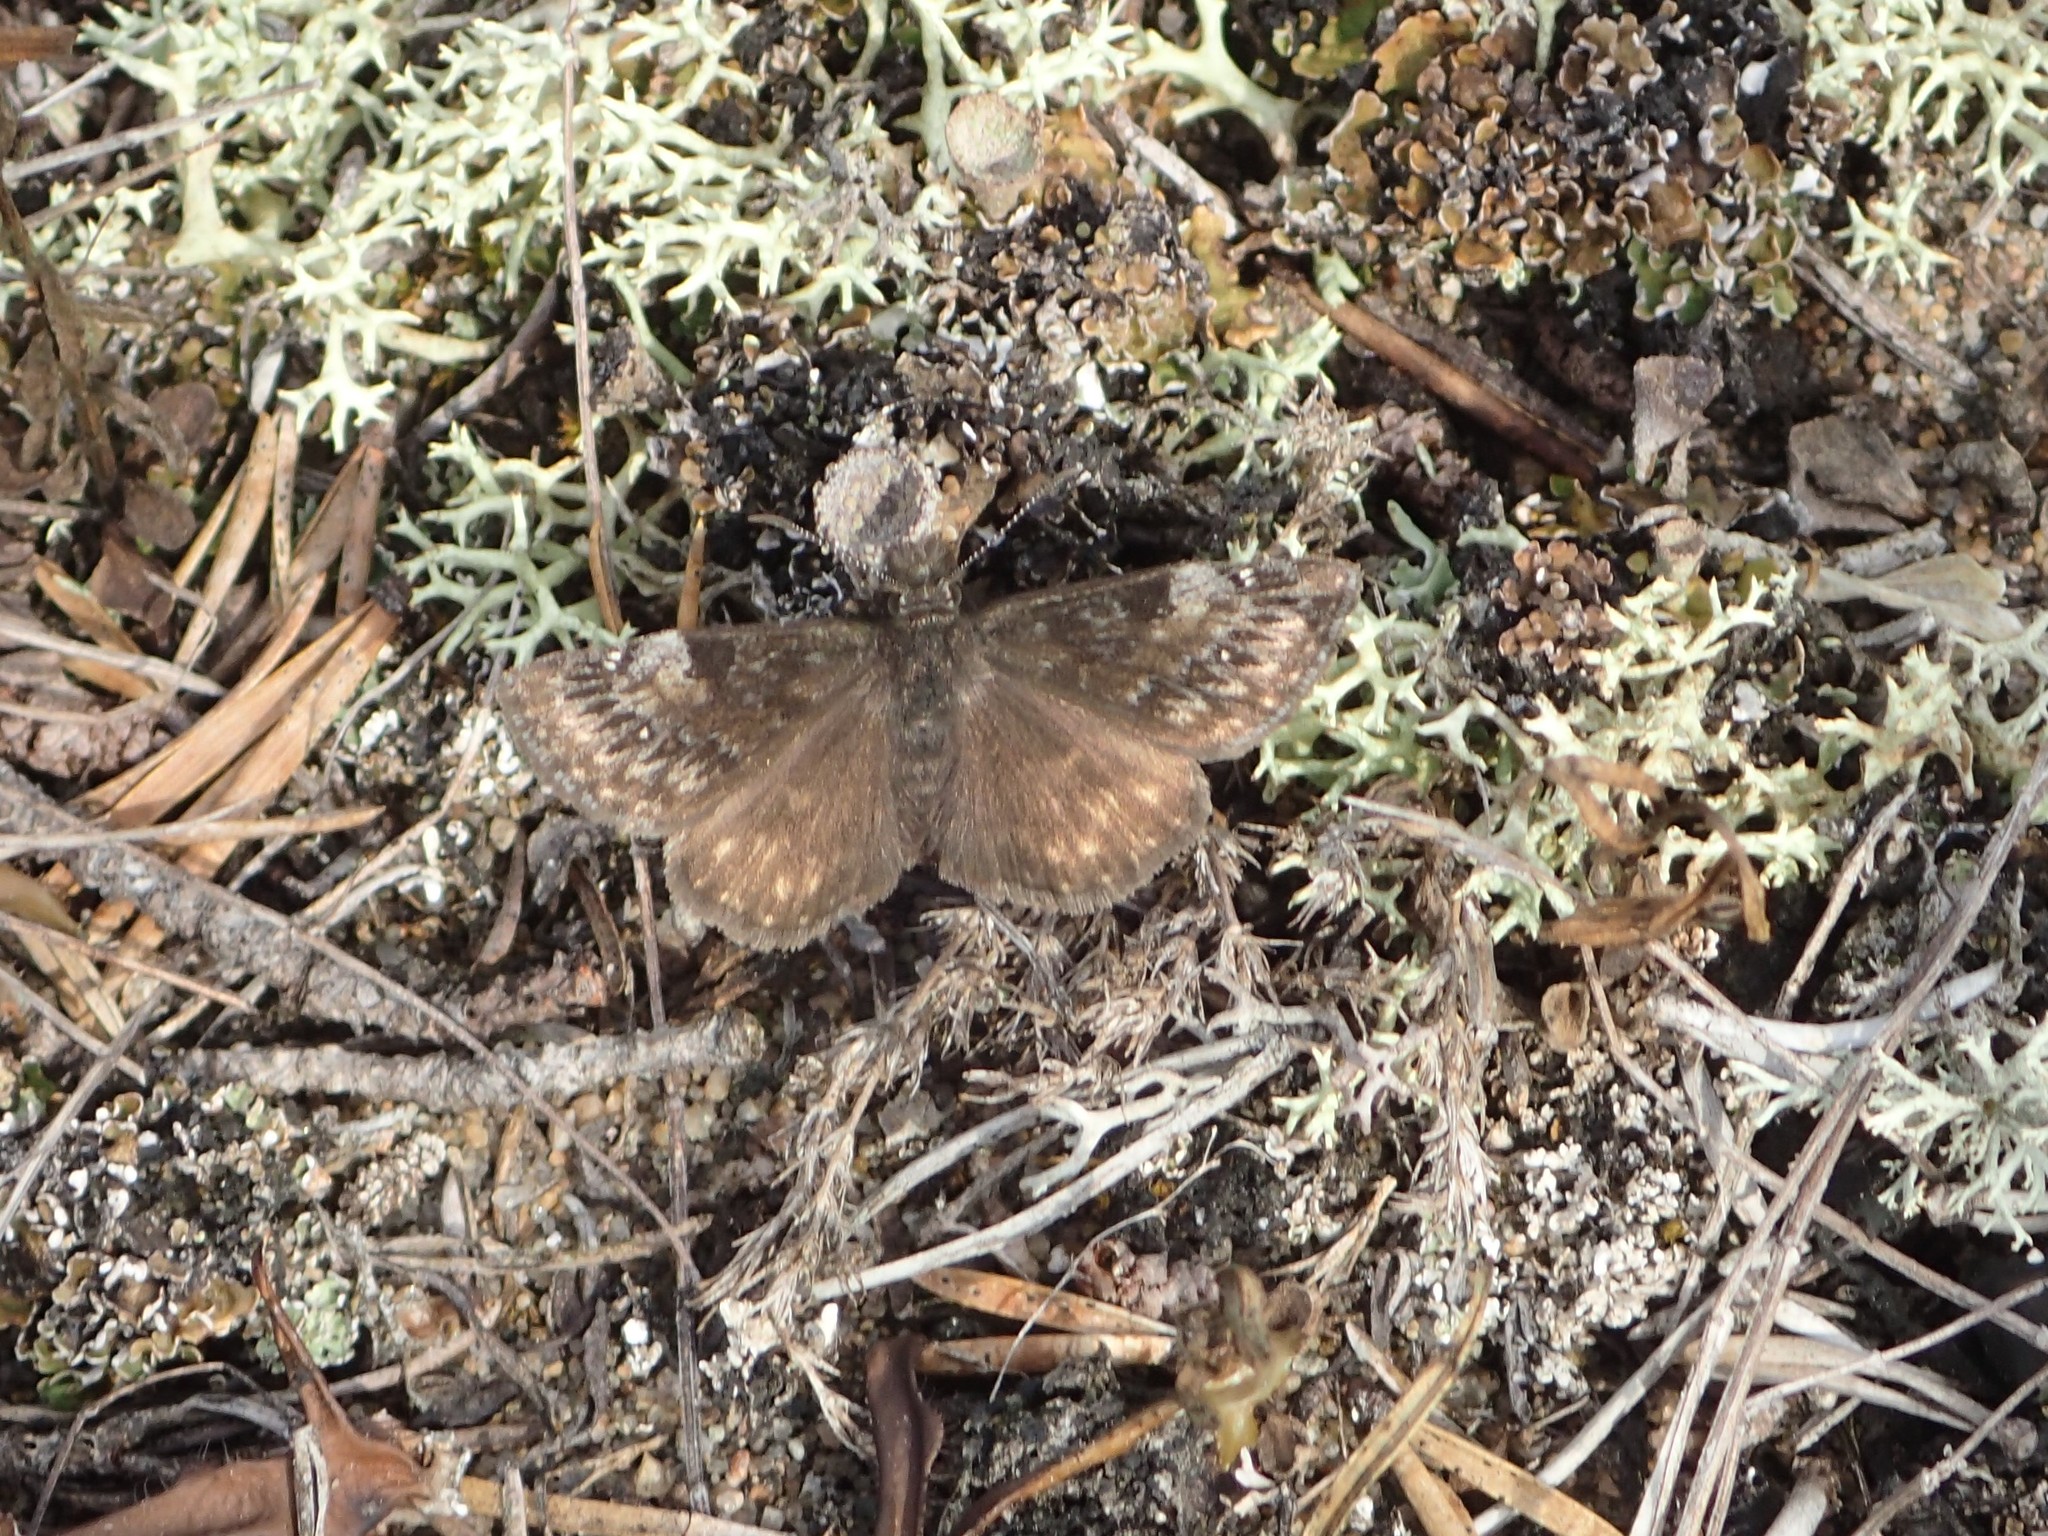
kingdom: Animalia
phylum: Arthropoda
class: Insecta
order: Lepidoptera
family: Hesperiidae
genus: Erynnis
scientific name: Erynnis lucilius
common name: Columbine duskywing
